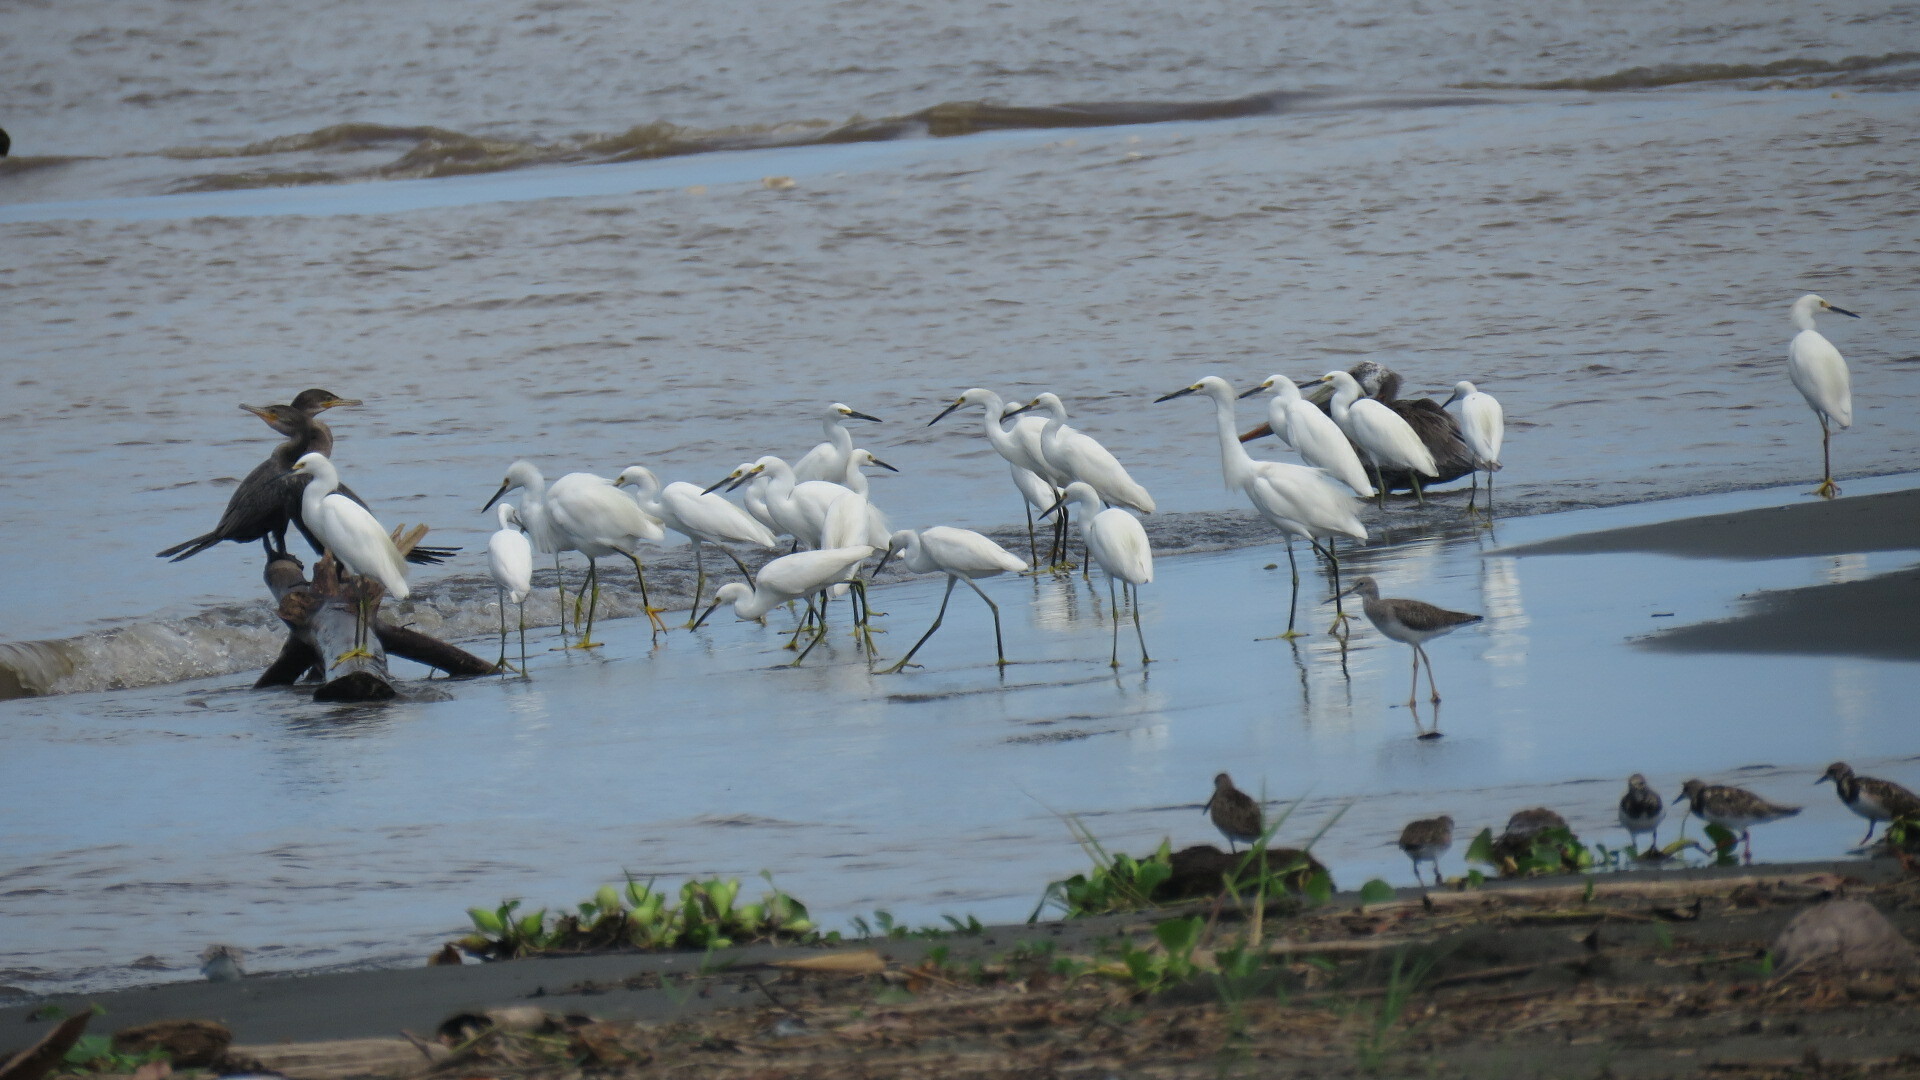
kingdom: Animalia
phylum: Chordata
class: Aves
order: Pelecaniformes
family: Ardeidae
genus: Egretta
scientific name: Egretta thula
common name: Snowy egret
